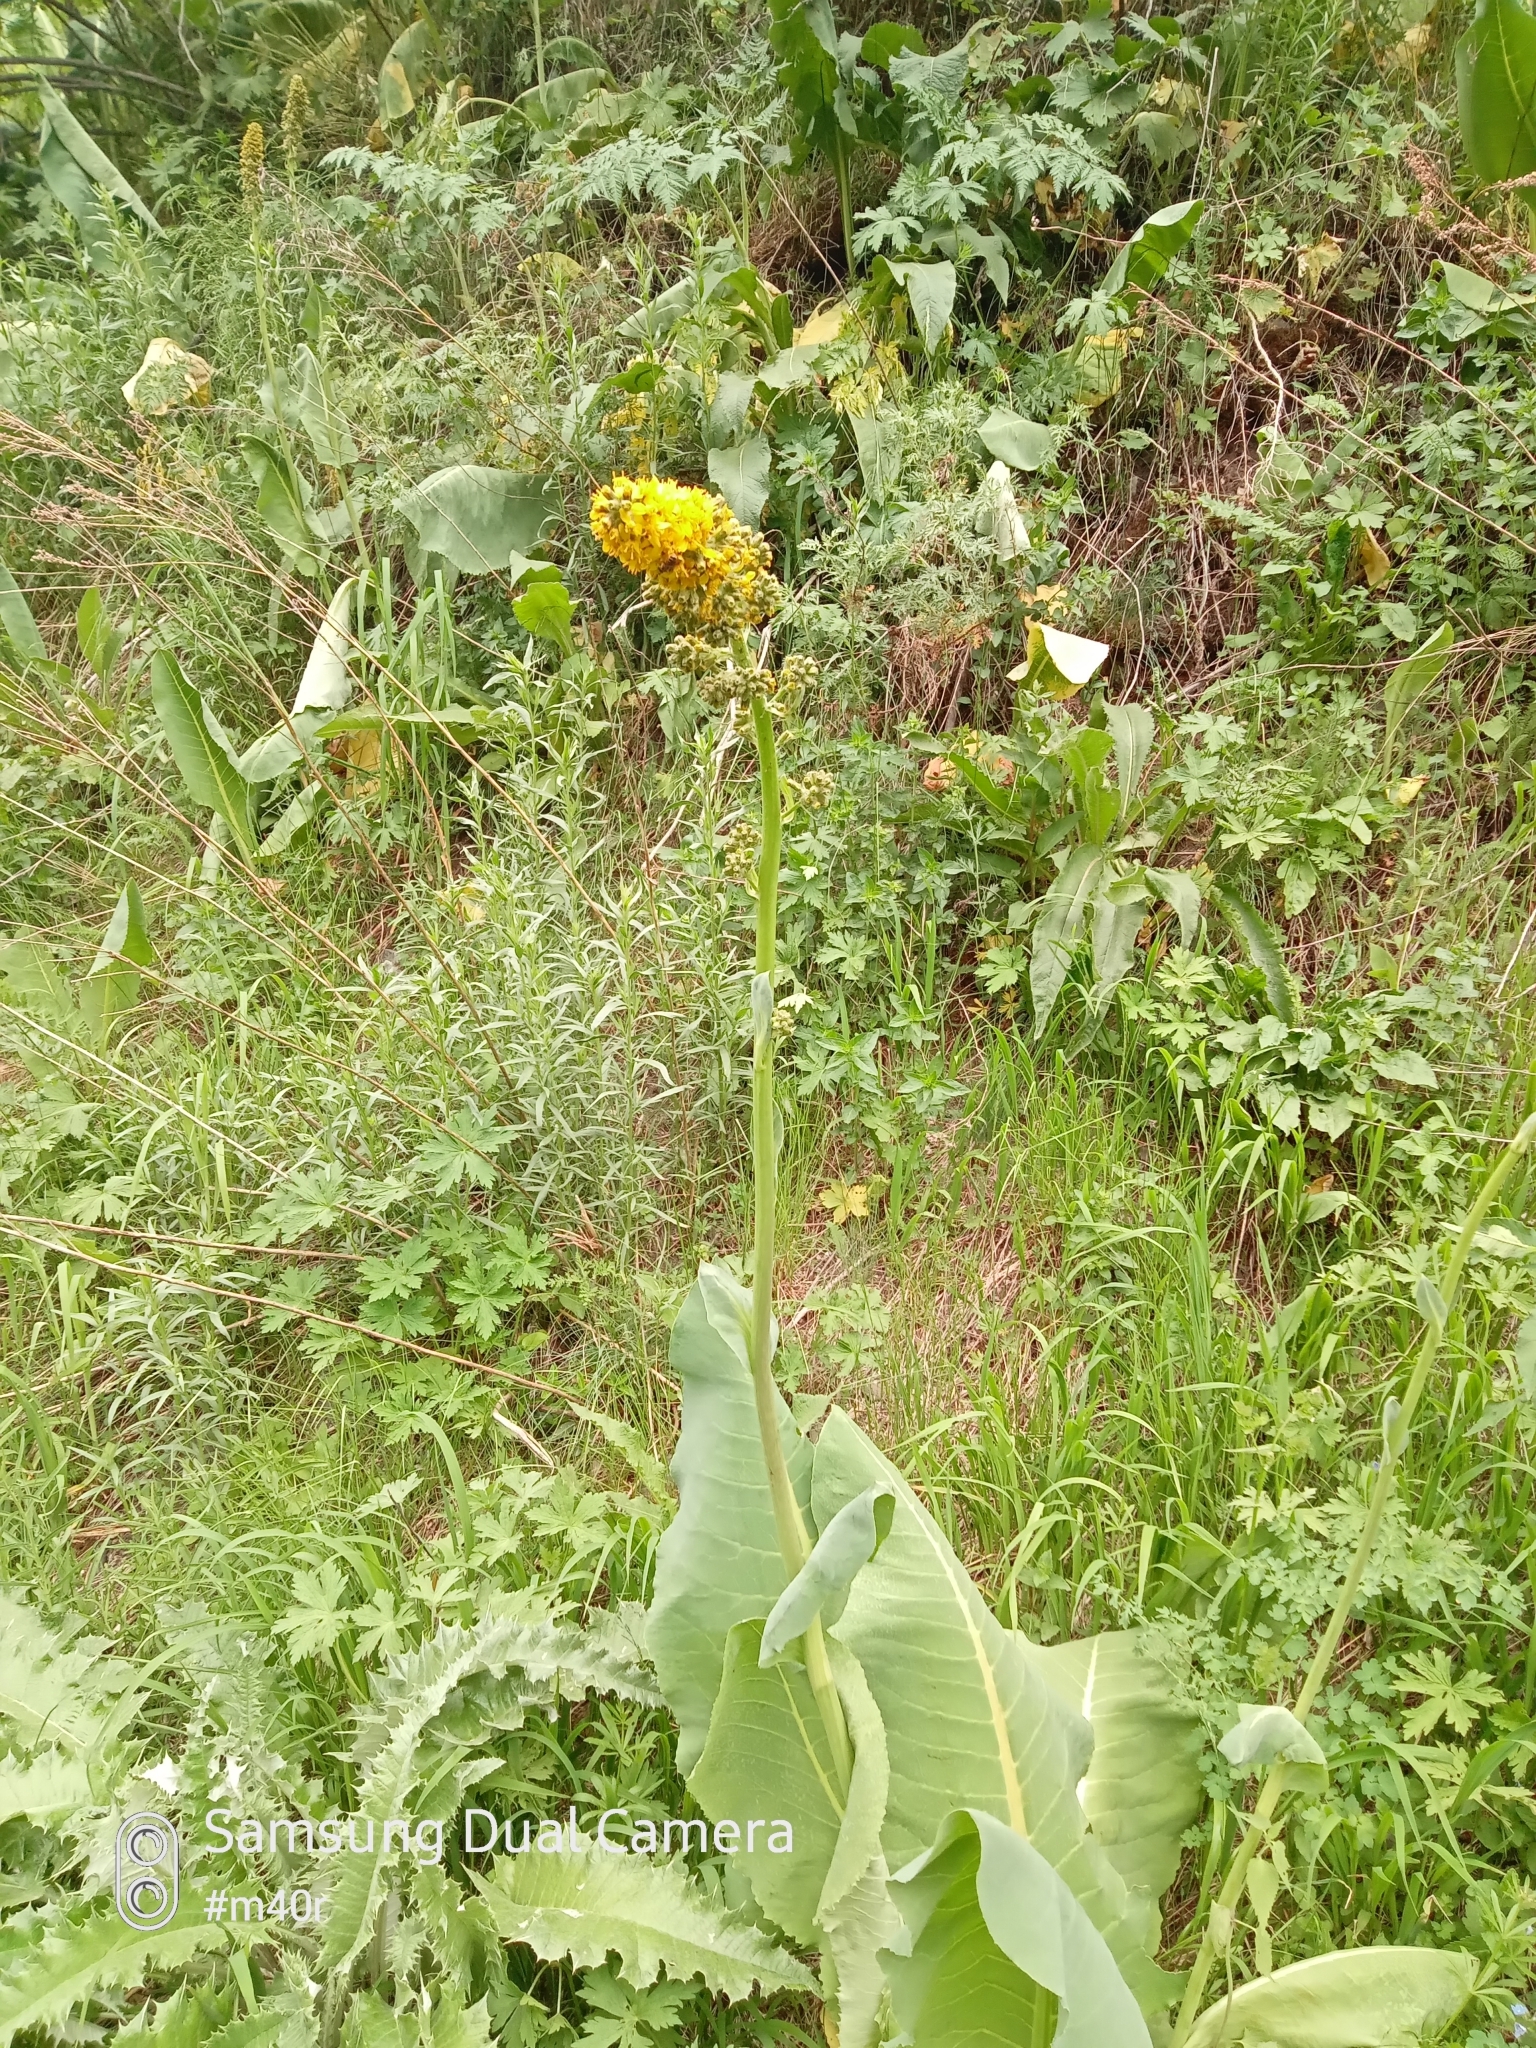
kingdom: Plantae
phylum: Tracheophyta
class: Magnoliopsida
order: Asterales
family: Asteraceae
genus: Ligularia
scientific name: Ligularia heterophylla
